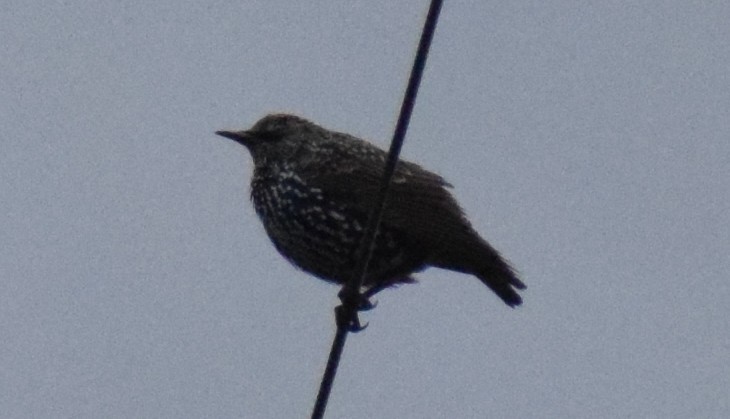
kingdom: Animalia
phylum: Chordata
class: Aves
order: Passeriformes
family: Sturnidae
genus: Sturnus
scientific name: Sturnus vulgaris
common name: Common starling
